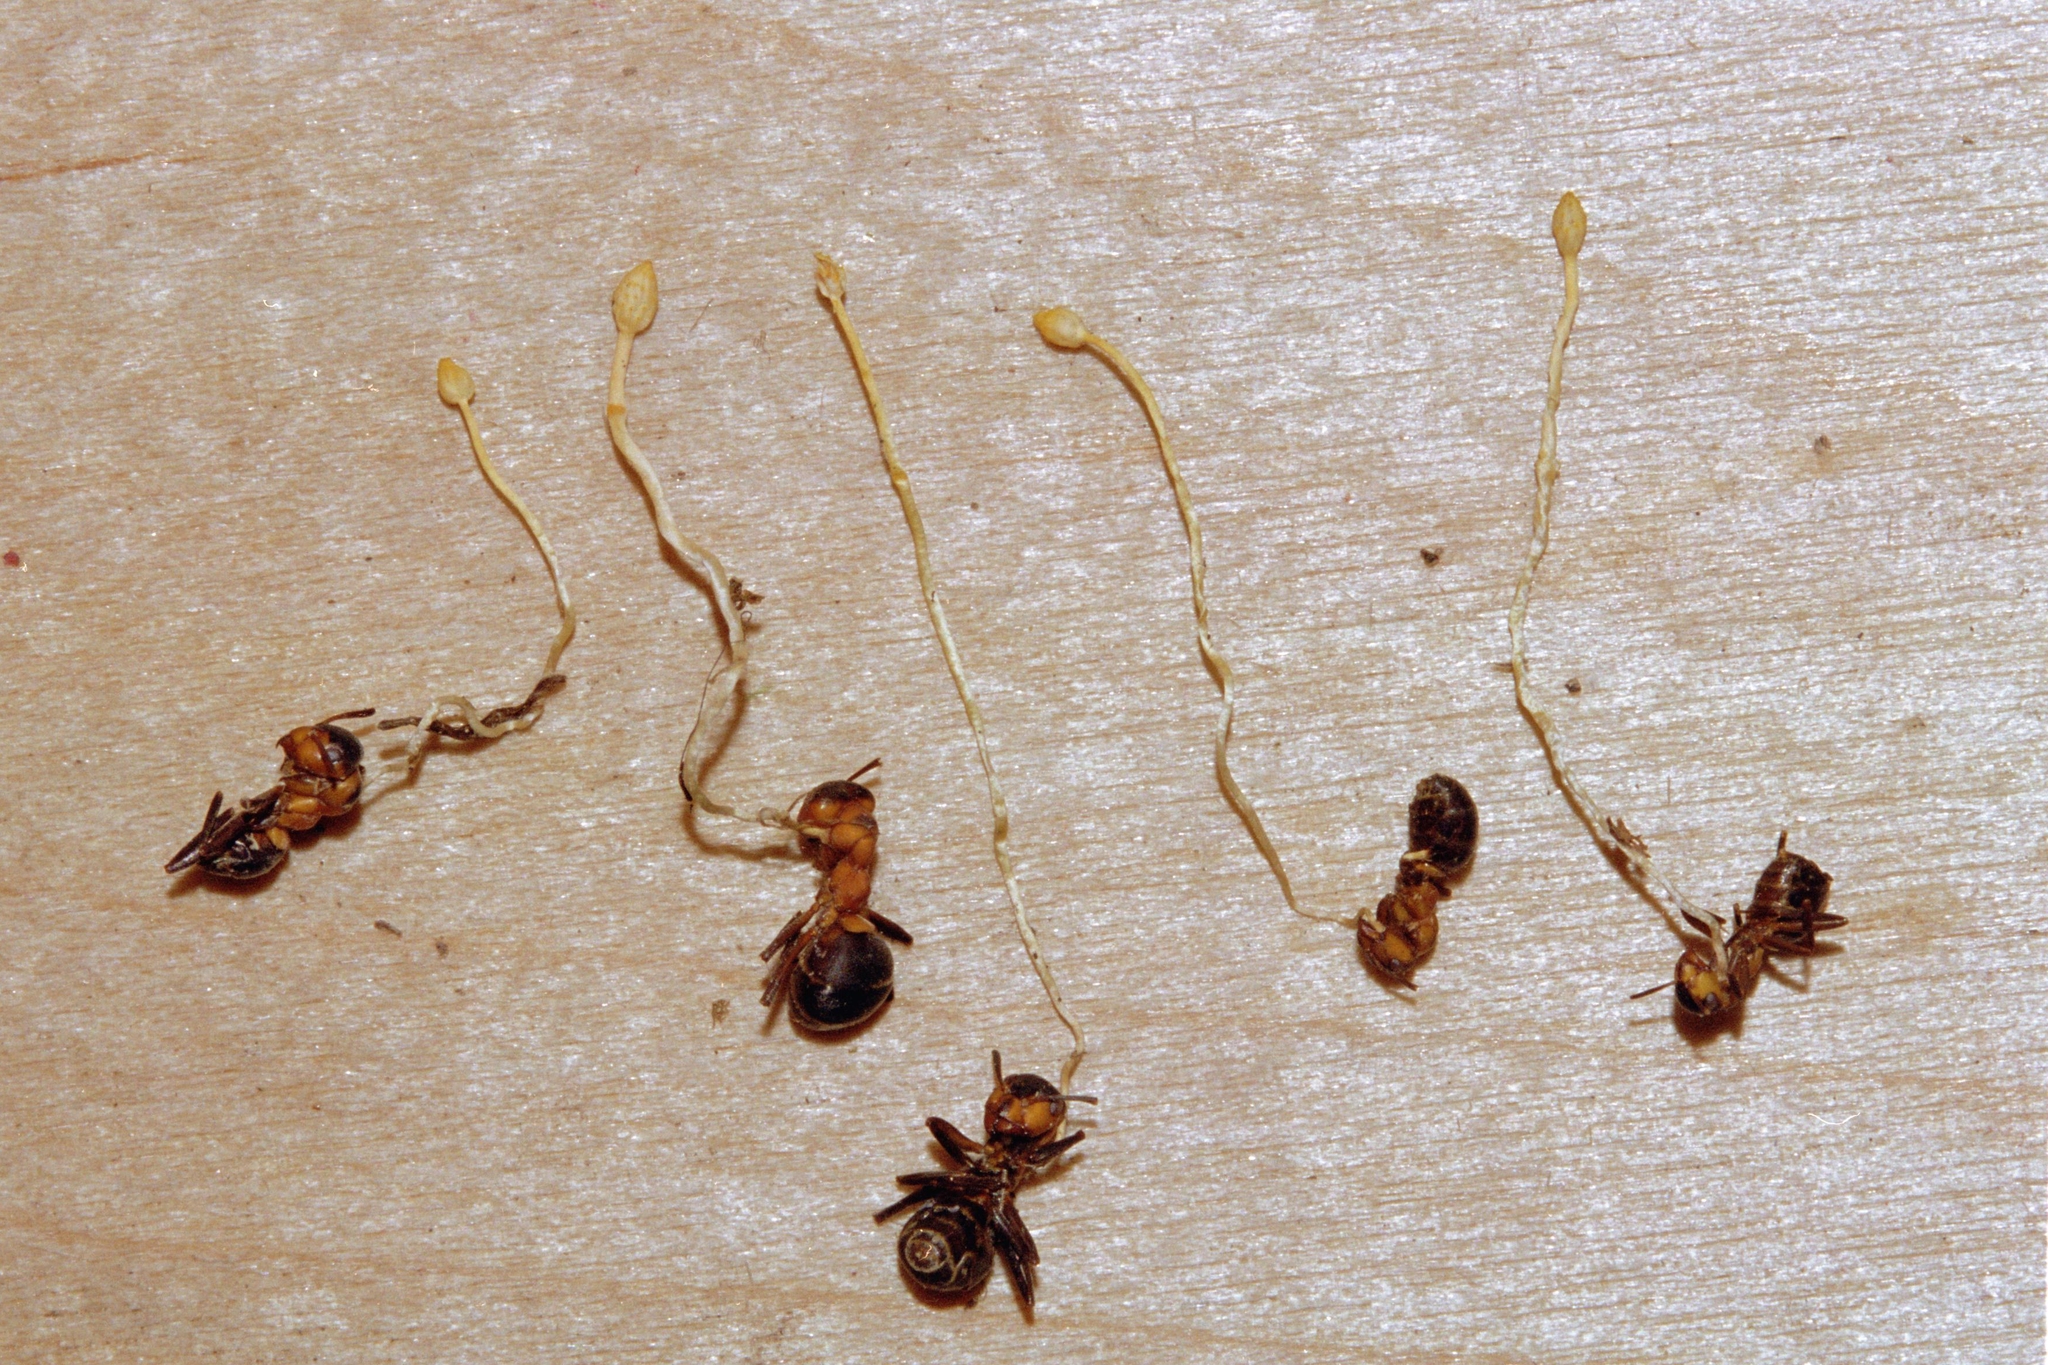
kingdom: Fungi
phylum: Ascomycota
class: Sordariomycetes
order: Hypocreales
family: Ophiocordycipitaceae
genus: Ophiocordyceps
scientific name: Ophiocordyceps myrmecophila
